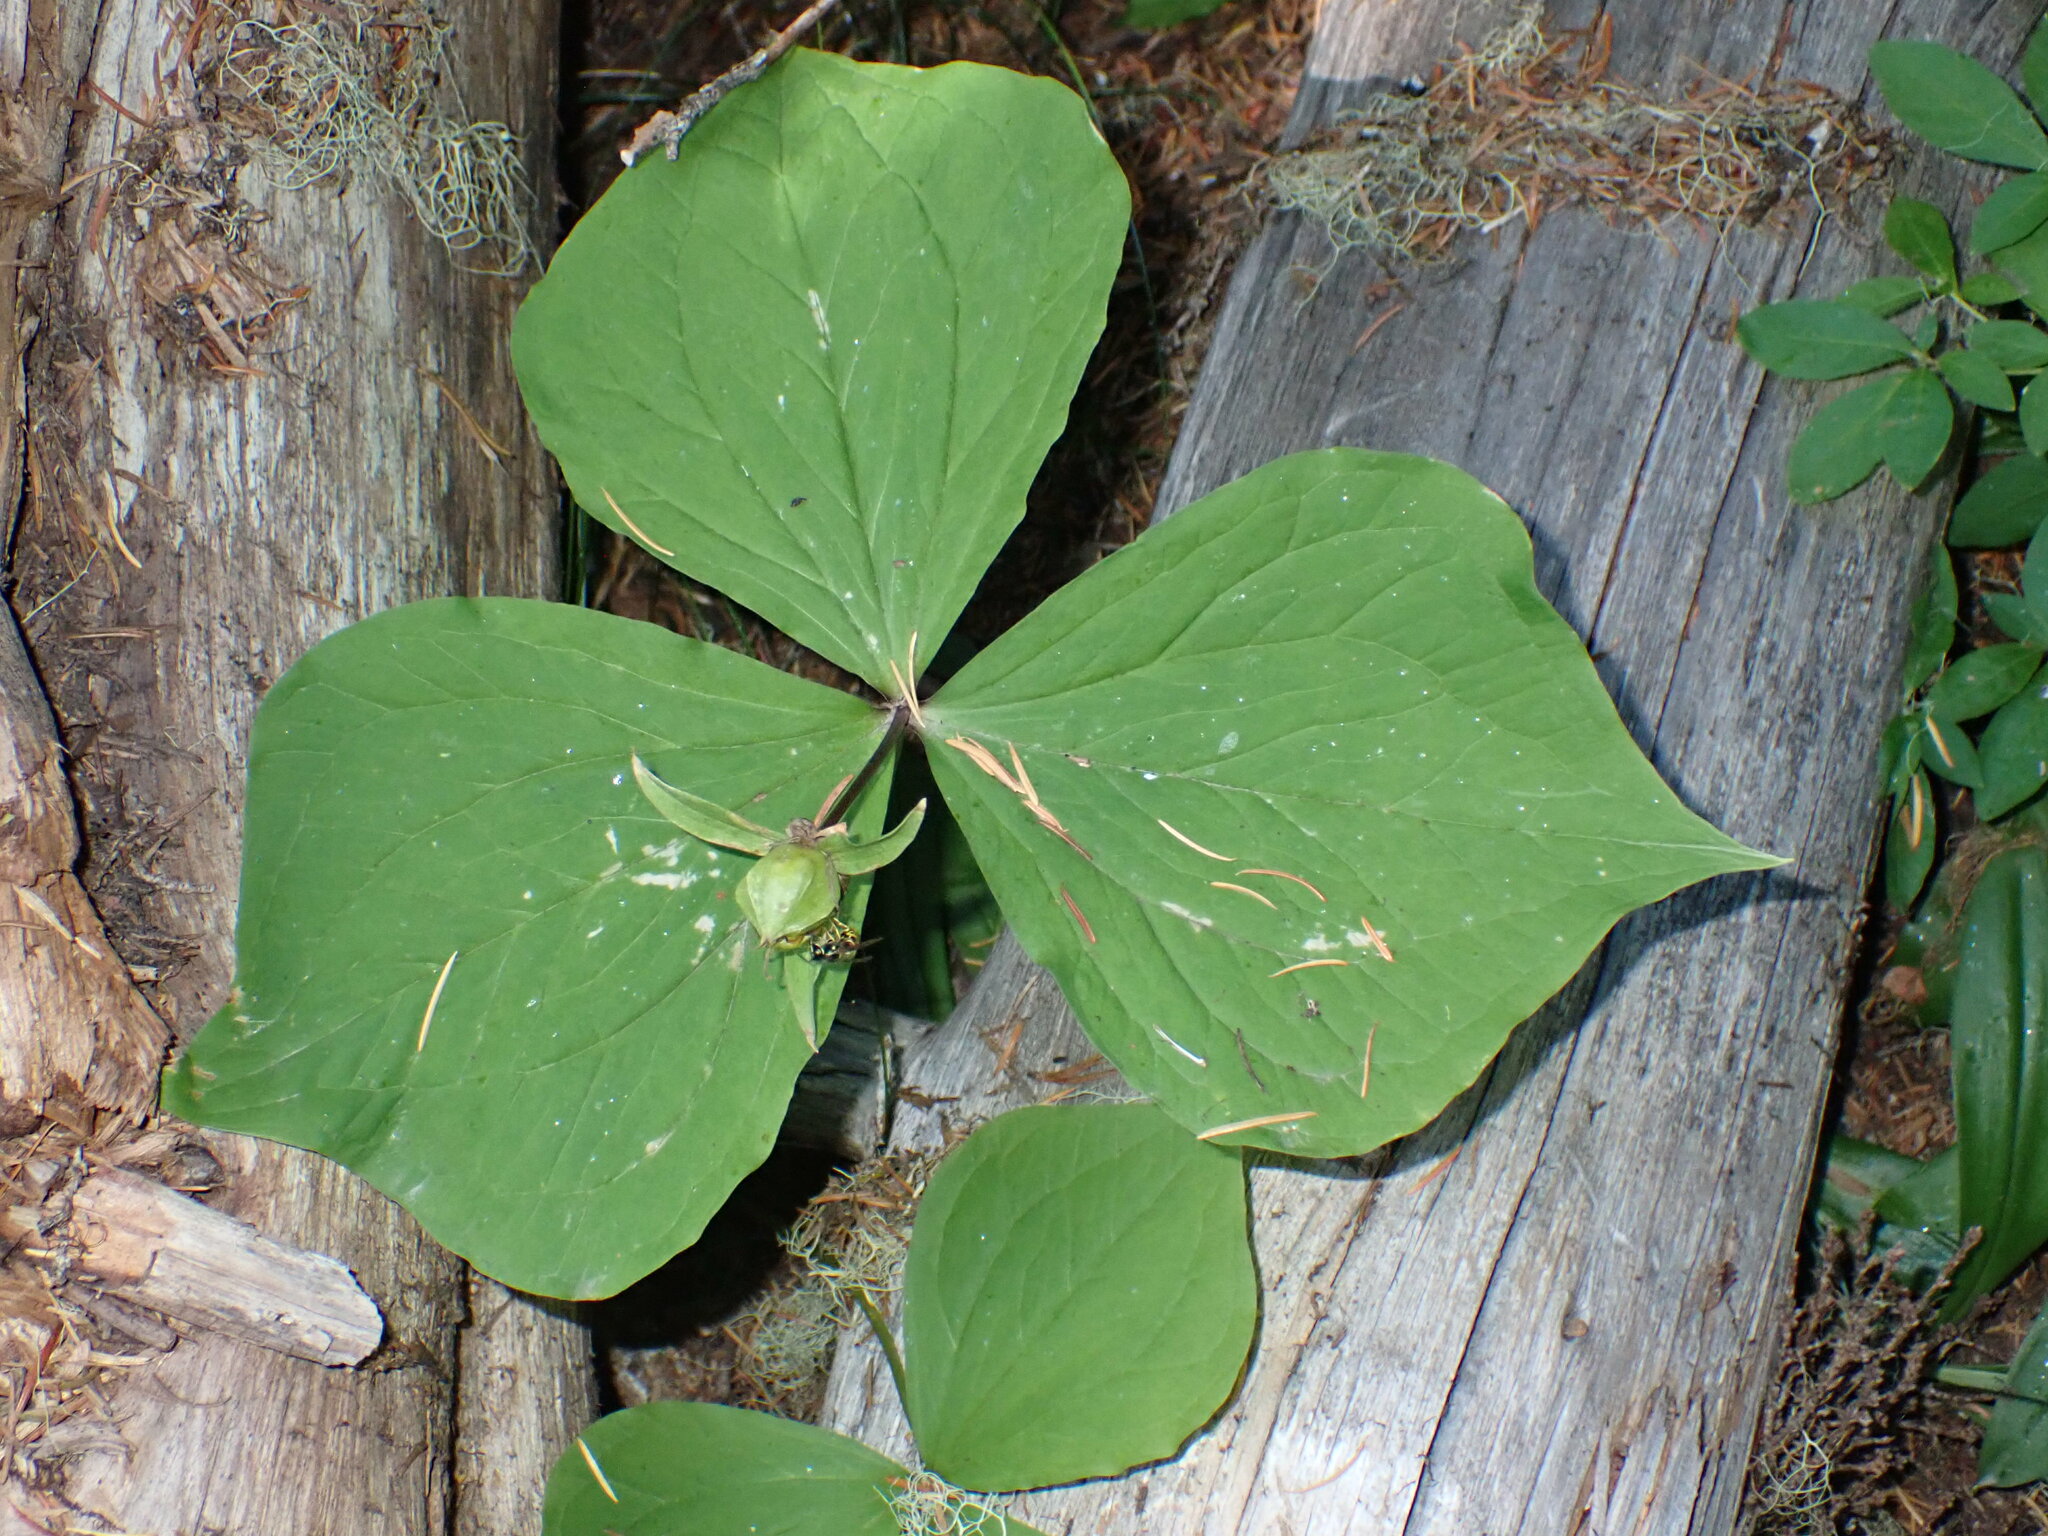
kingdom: Plantae
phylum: Tracheophyta
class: Liliopsida
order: Liliales
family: Melanthiaceae
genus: Trillium
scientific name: Trillium ovatum
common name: Pacific trillium
